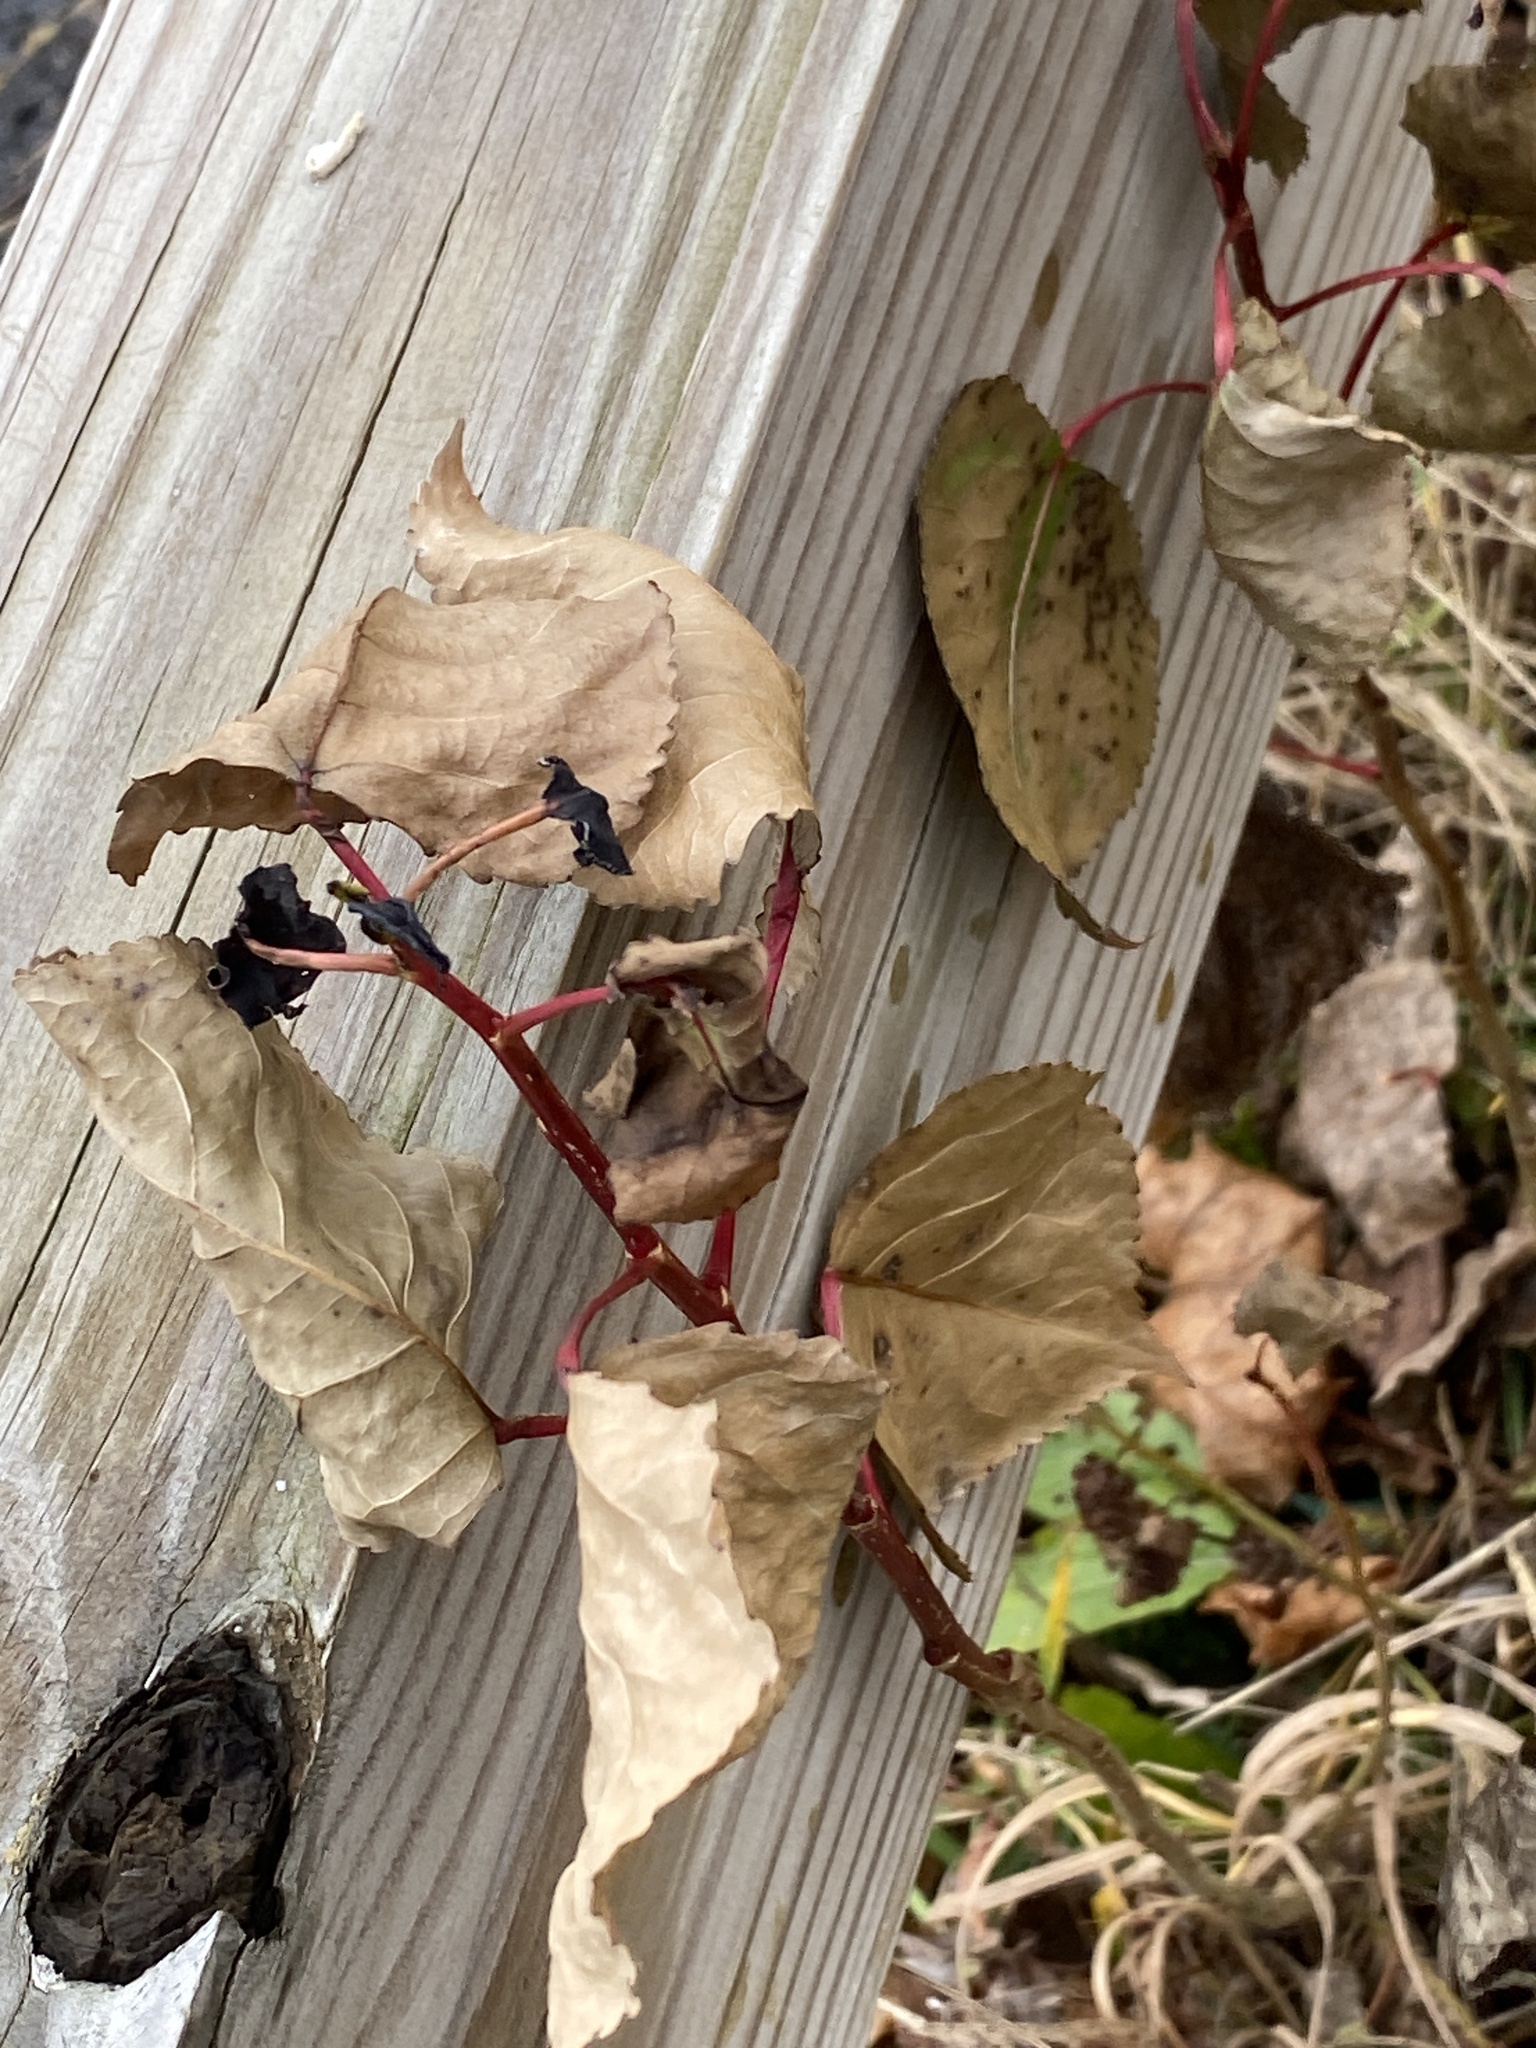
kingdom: Plantae
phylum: Tracheophyta
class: Magnoliopsida
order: Malpighiales
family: Salicaceae
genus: Populus
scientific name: Populus deltoides
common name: Eastern cottonwood
